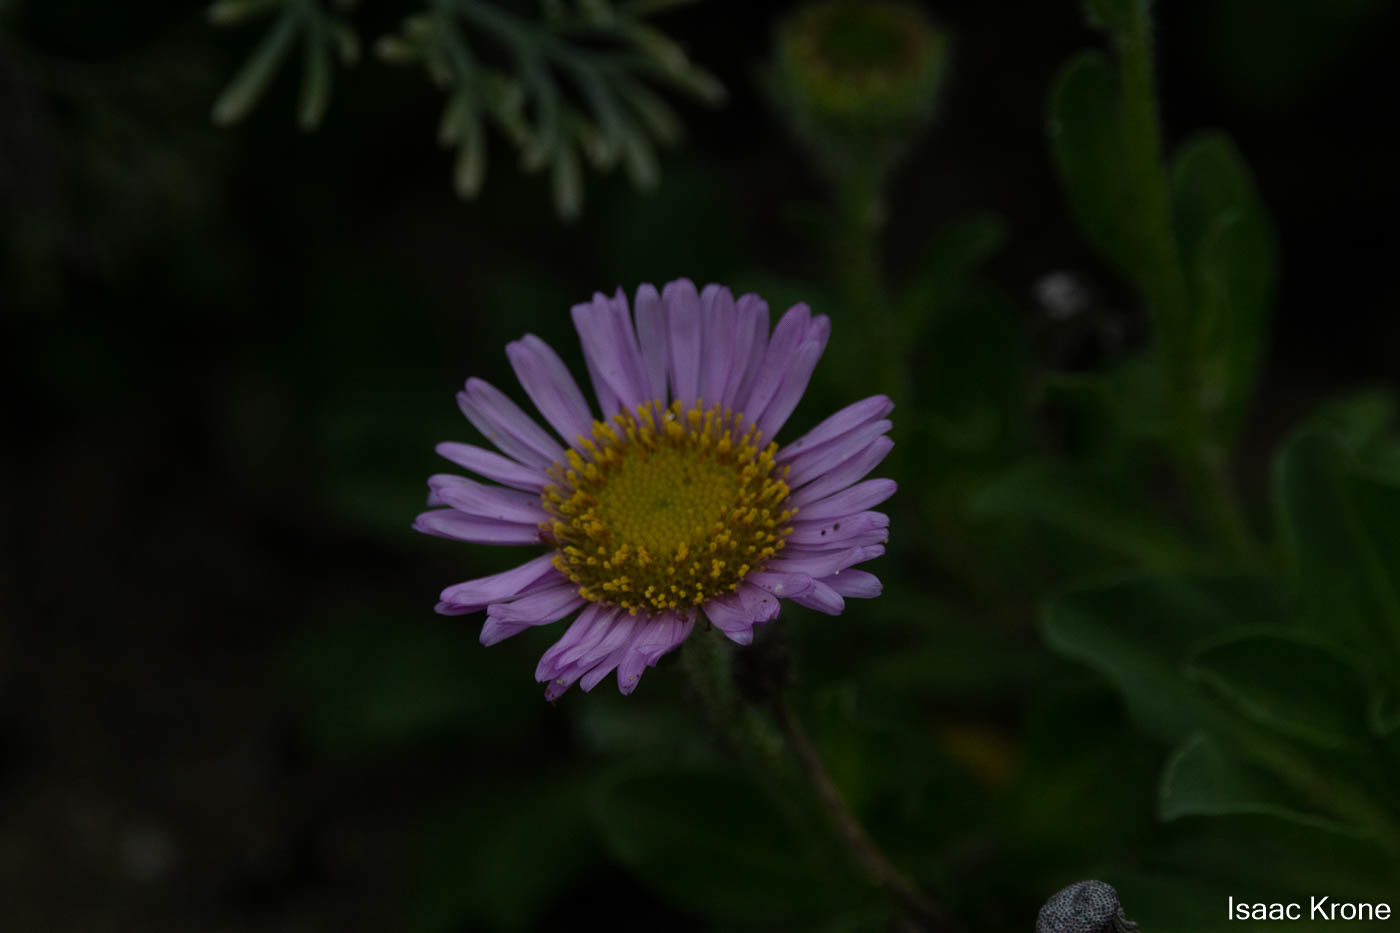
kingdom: Plantae
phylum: Tracheophyta
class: Magnoliopsida
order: Asterales
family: Asteraceae
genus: Erigeron
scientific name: Erigeron glaucus
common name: Seaside daisy
